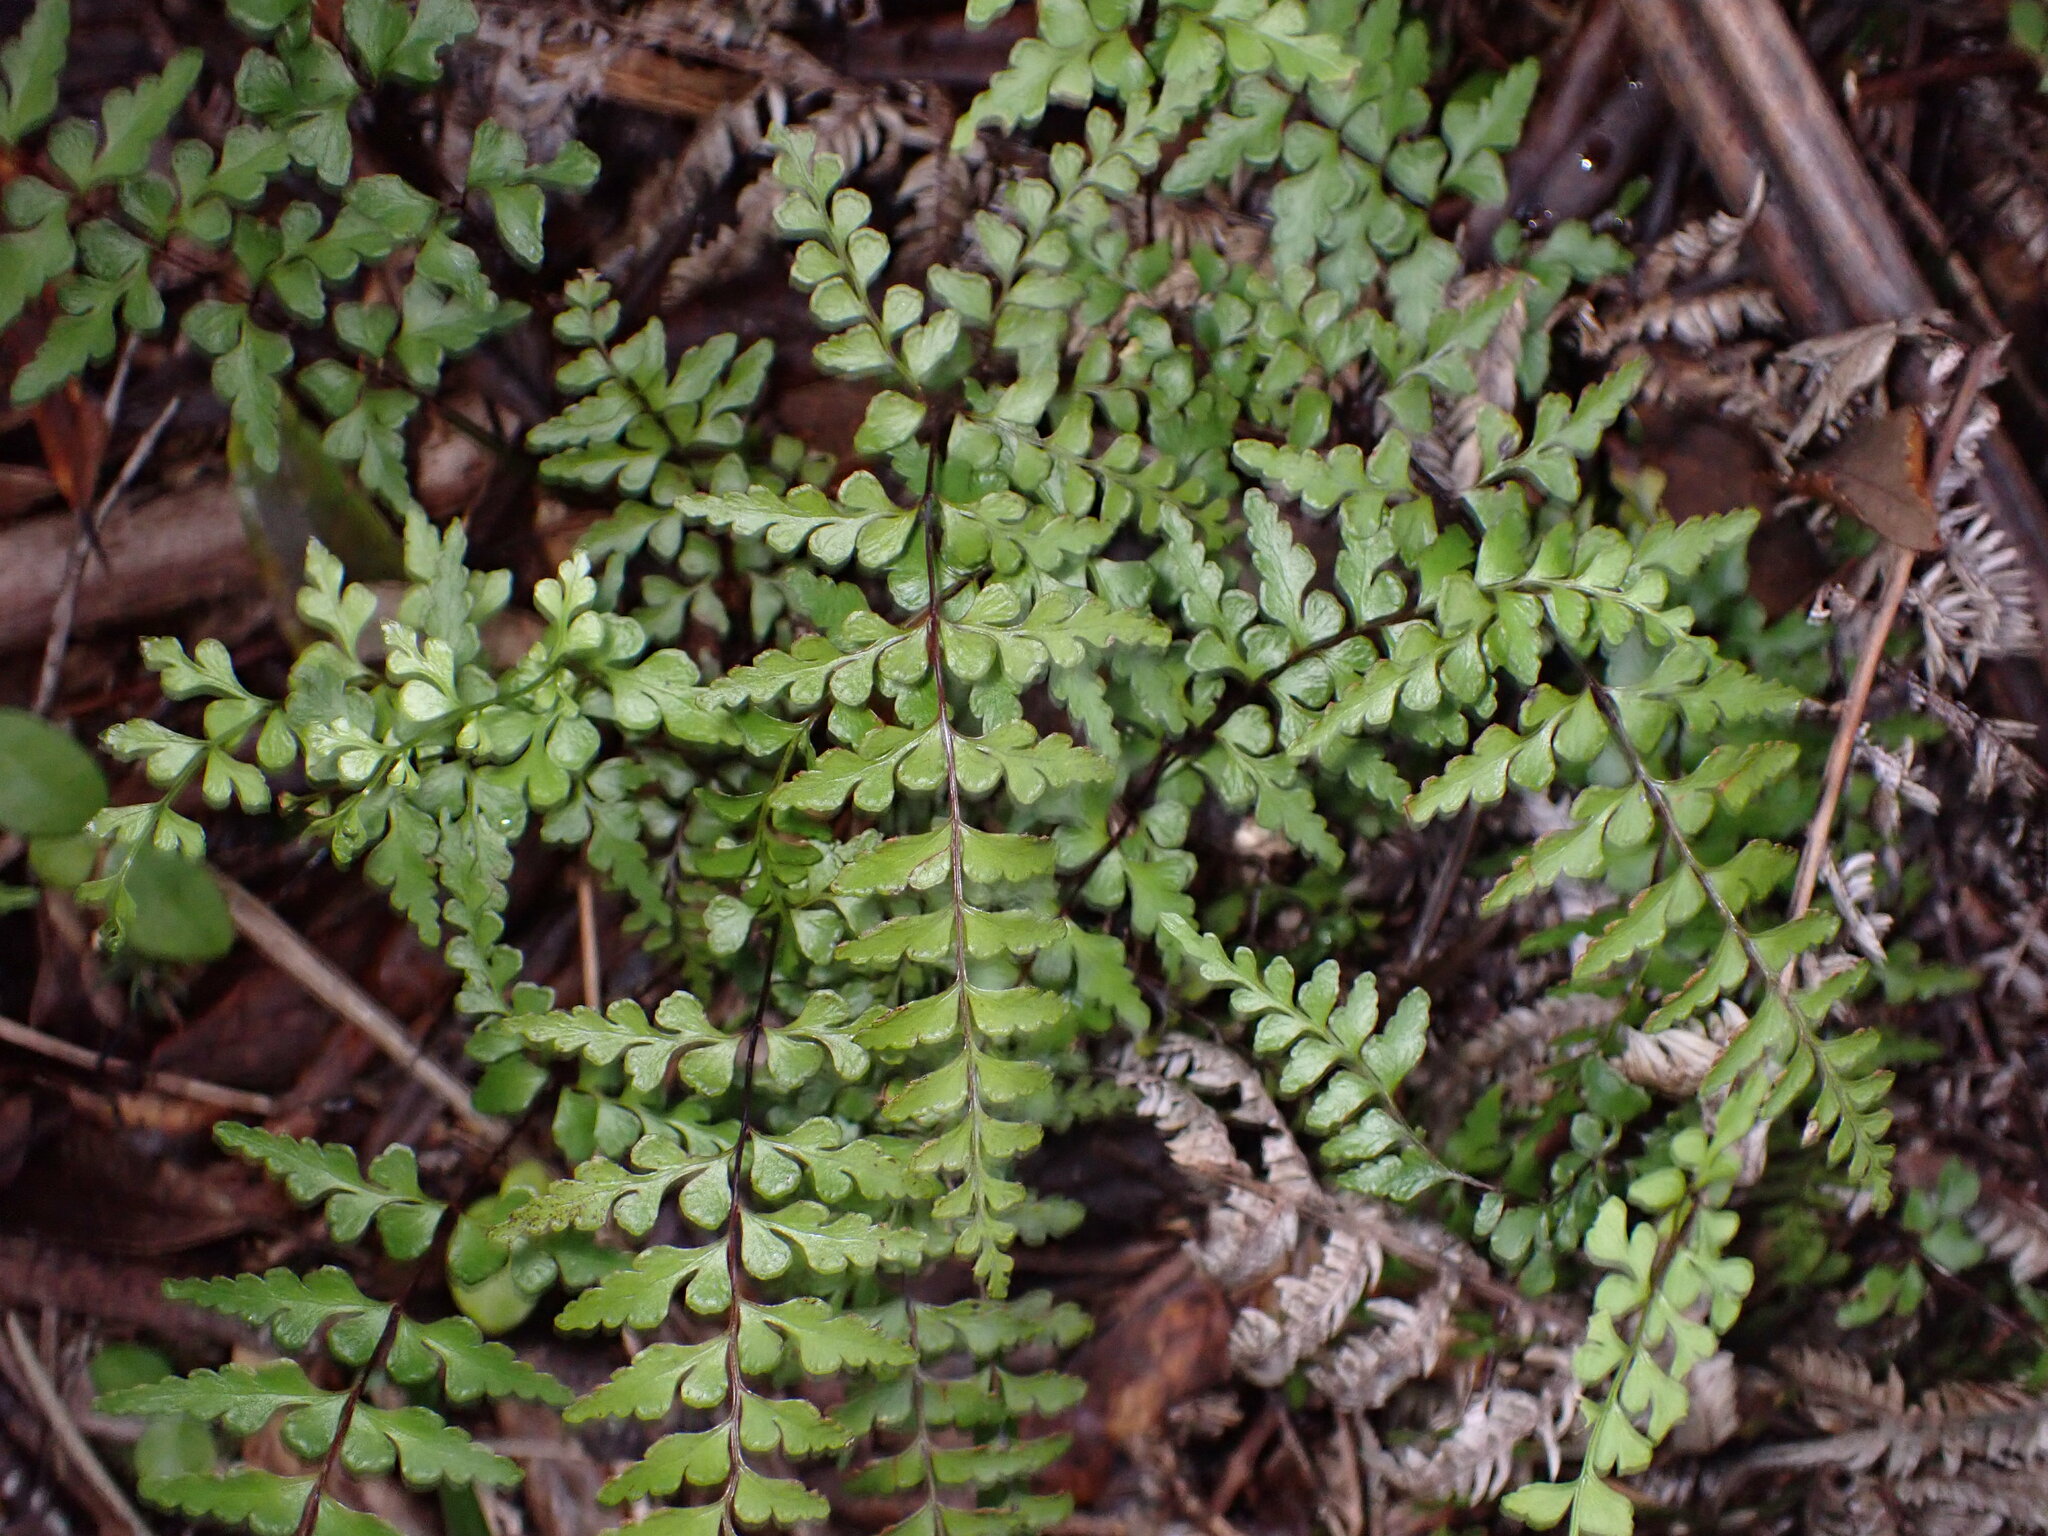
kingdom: Plantae
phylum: Tracheophyta
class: Polypodiopsida
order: Polypodiales
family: Lindsaeaceae
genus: Lindsaea
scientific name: Lindsaea trichomanoides
